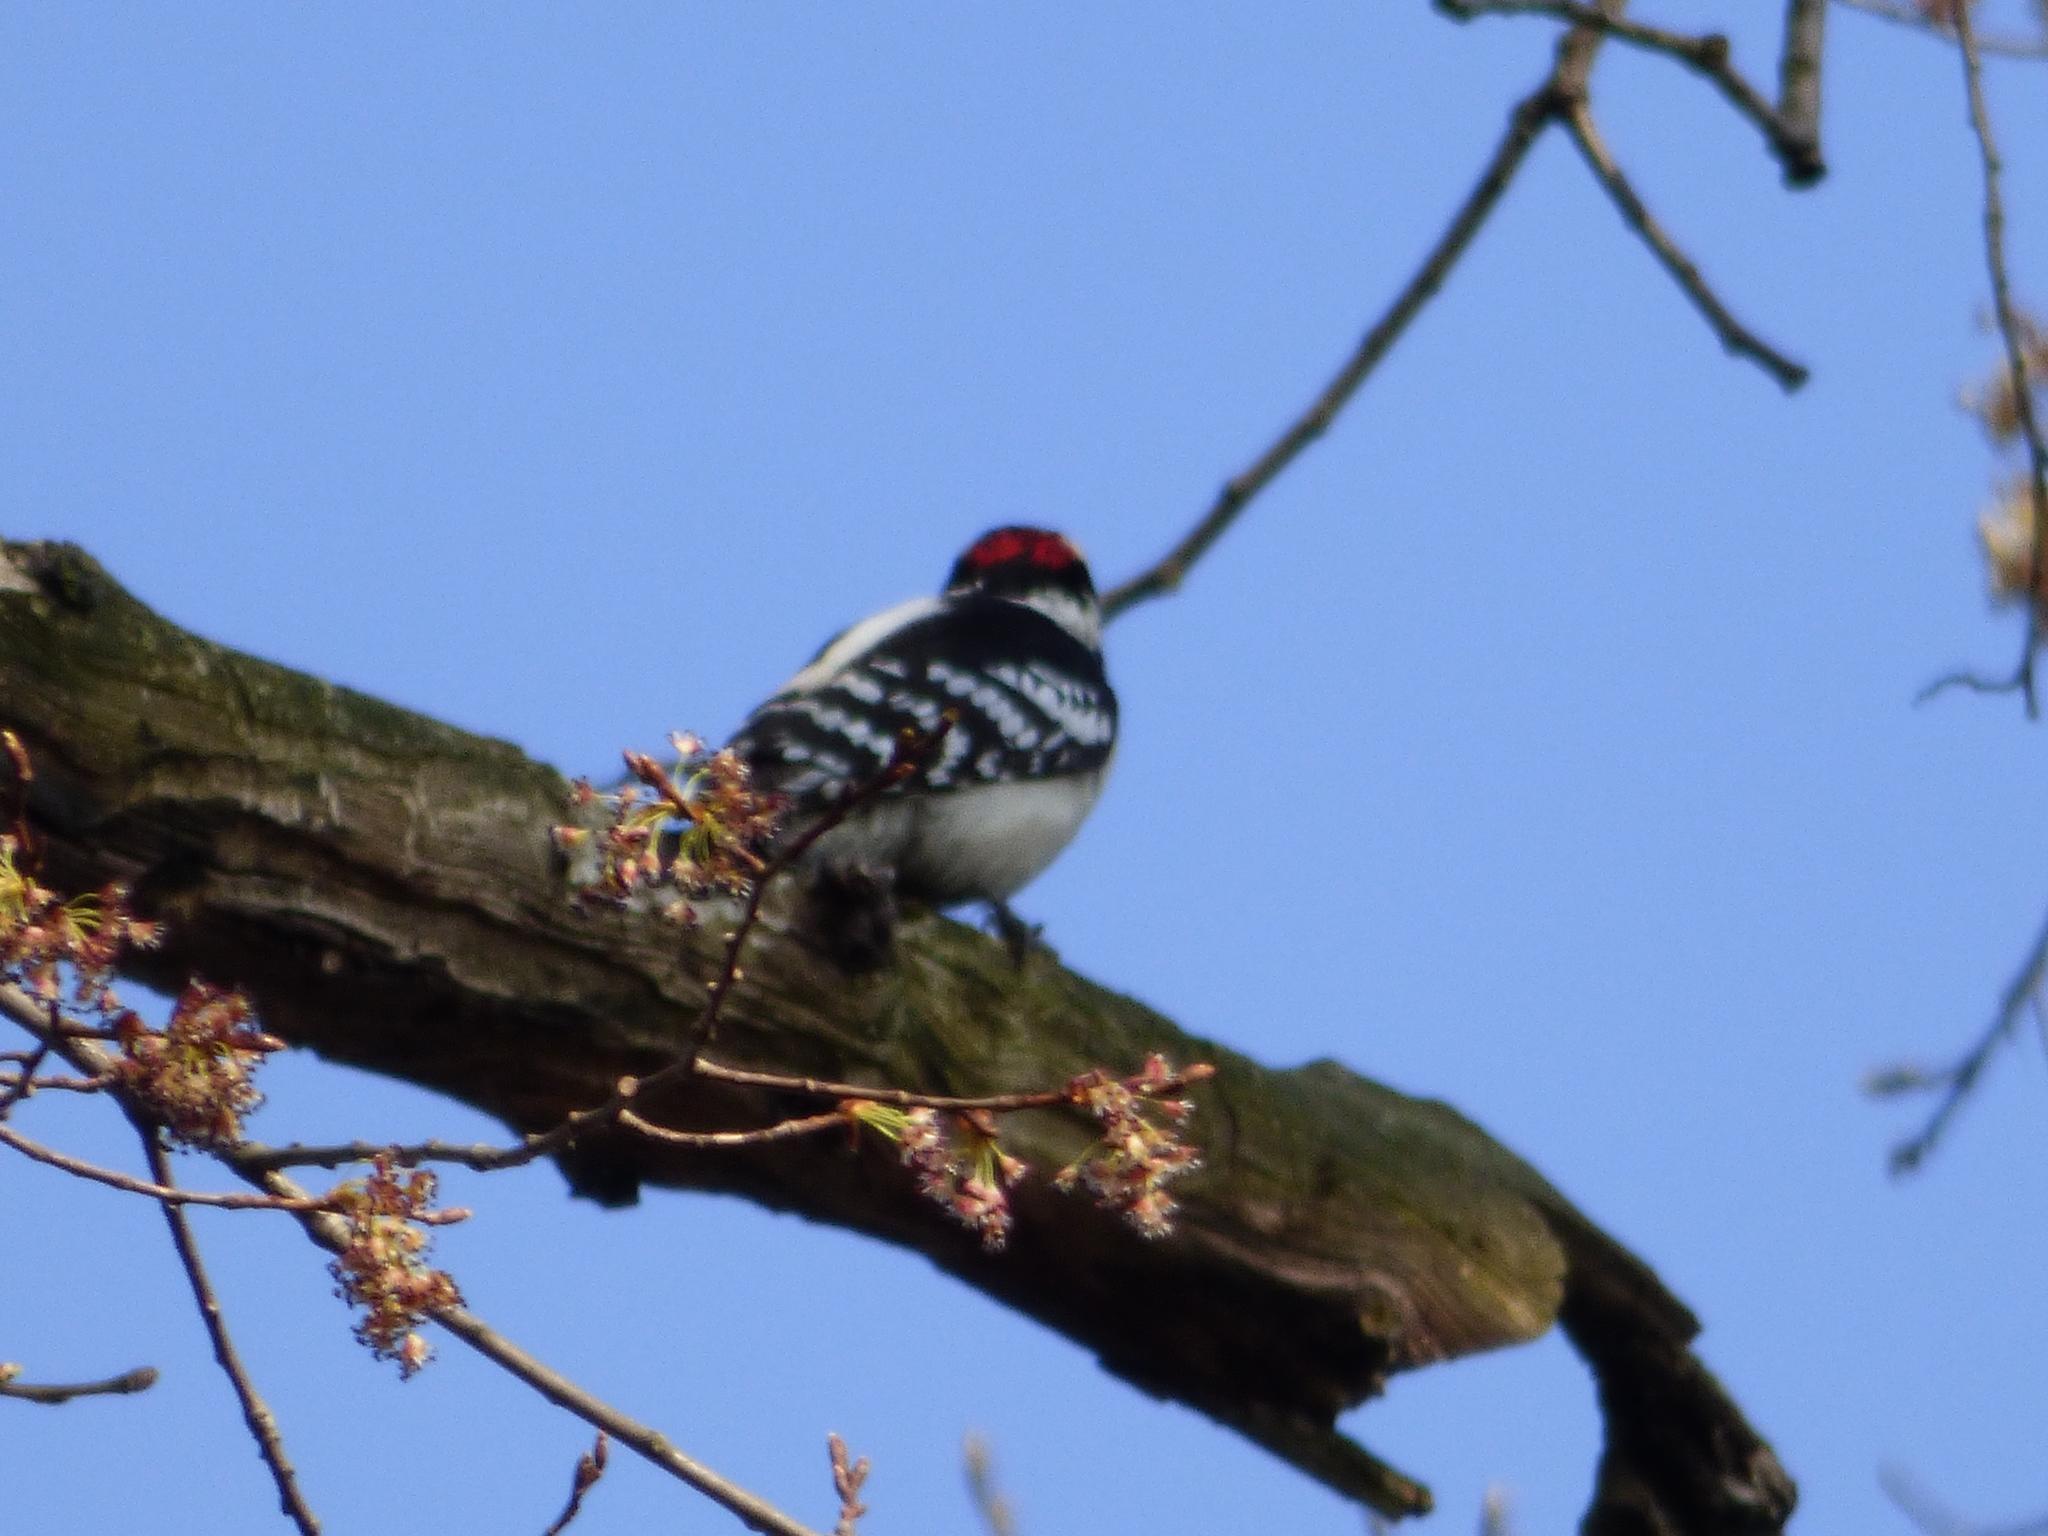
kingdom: Animalia
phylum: Chordata
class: Aves
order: Piciformes
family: Picidae
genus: Dryobates
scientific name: Dryobates pubescens
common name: Downy woodpecker
